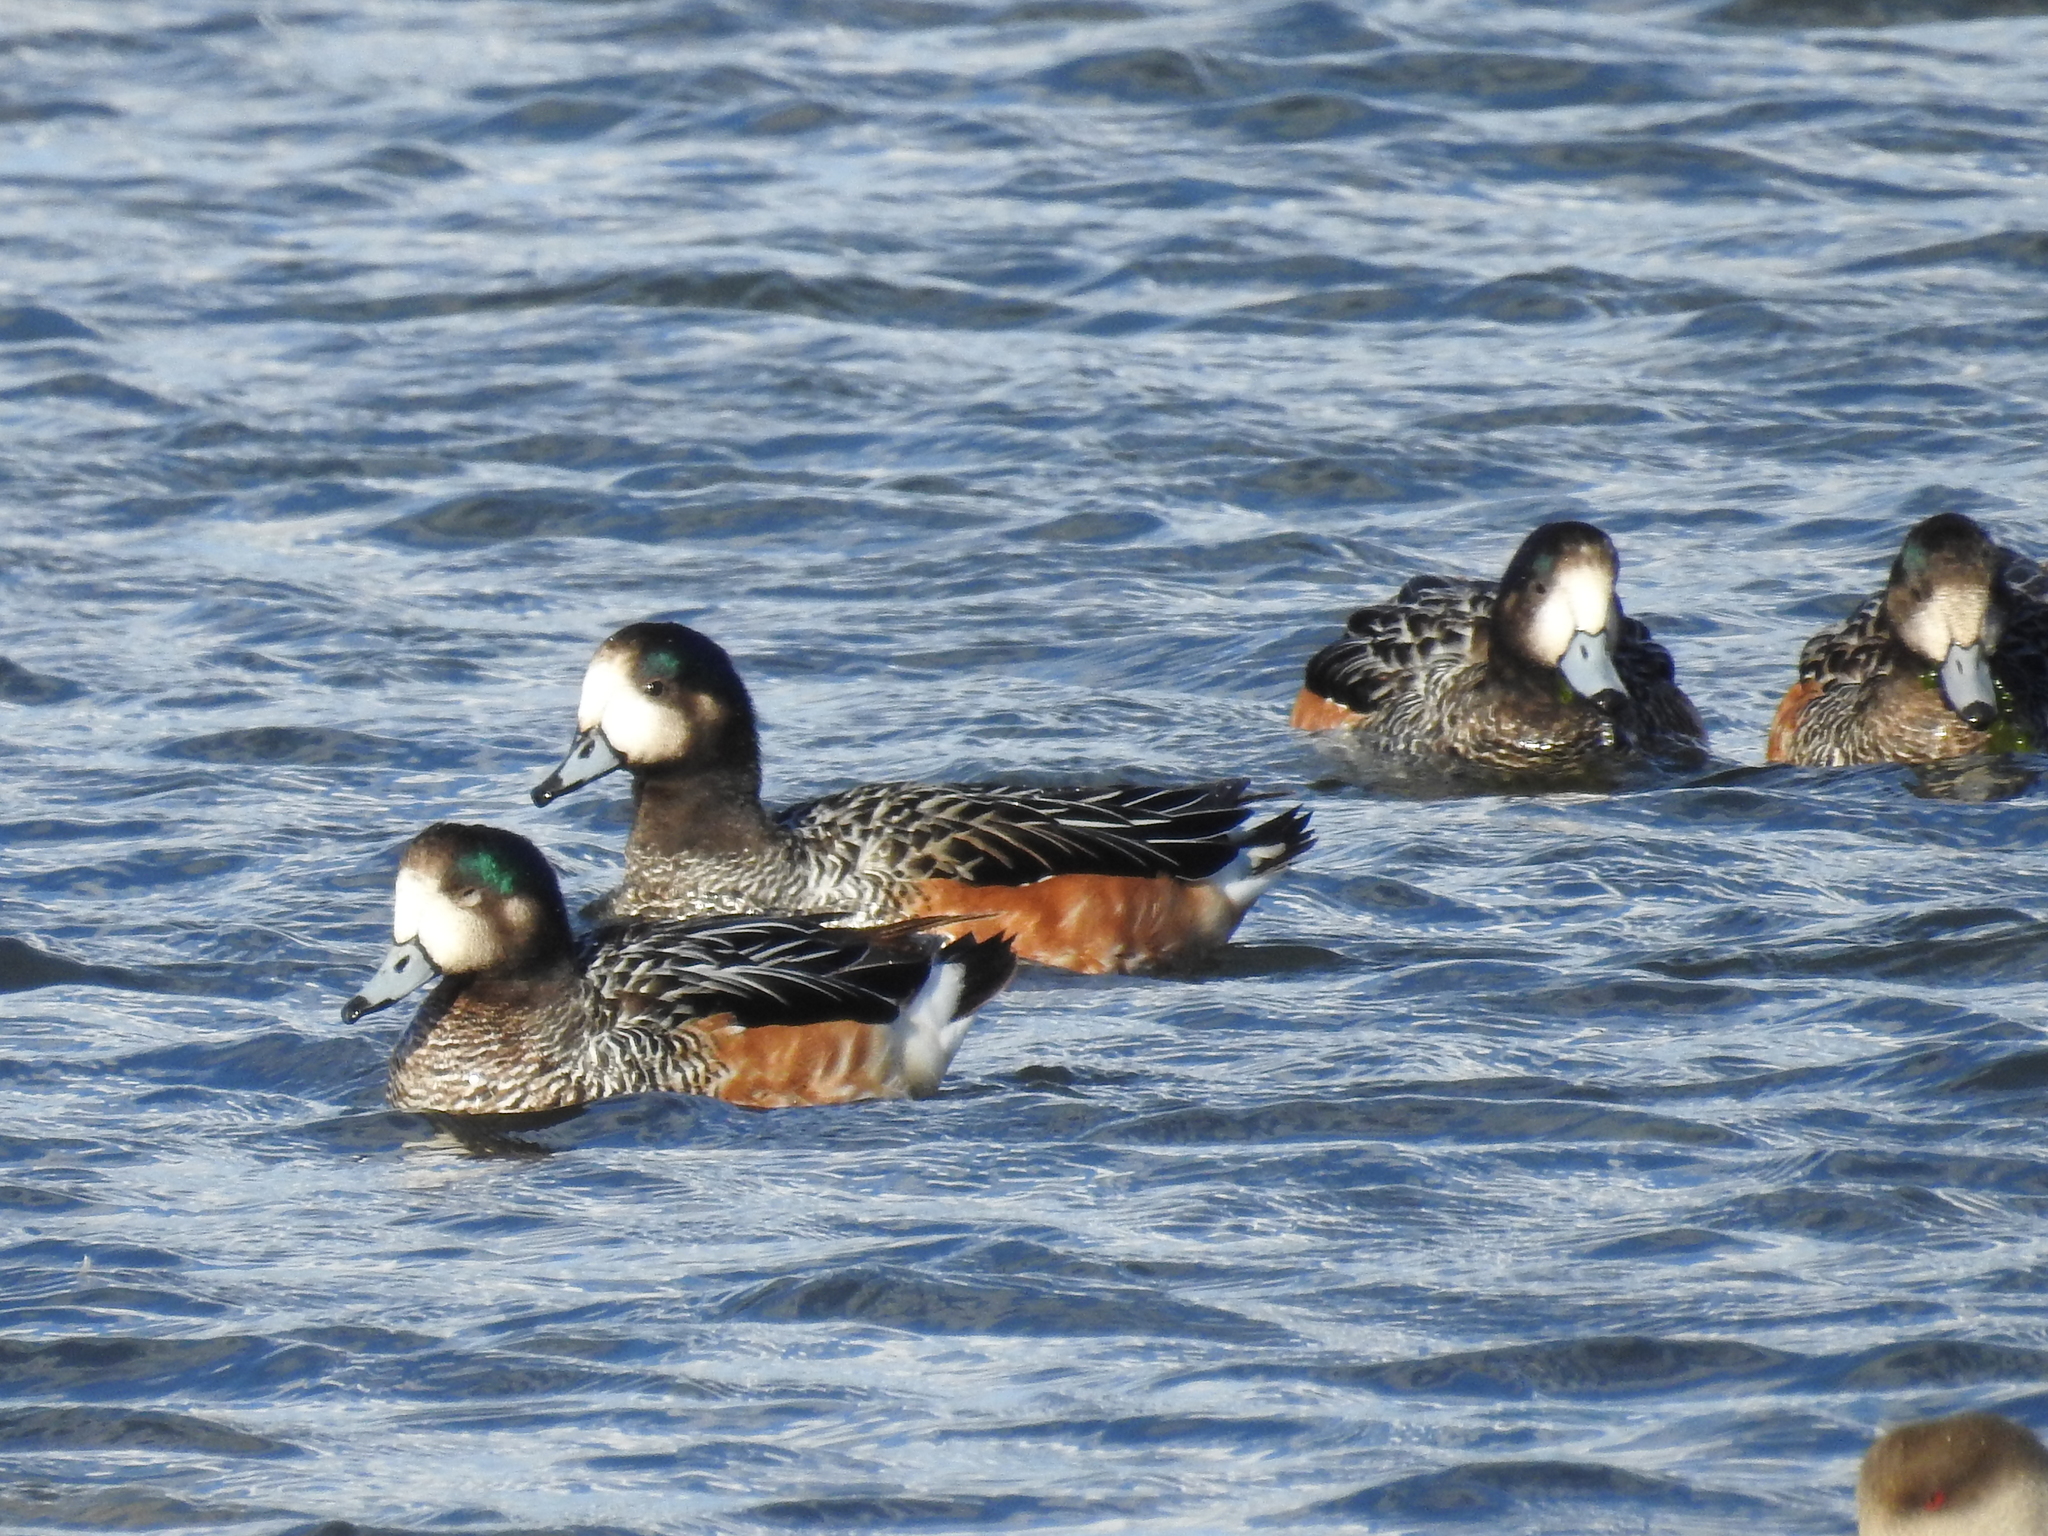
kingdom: Animalia
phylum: Chordata
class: Aves
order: Anseriformes
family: Anatidae
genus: Mareca
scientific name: Mareca sibilatrix
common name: Chiloe wigeon
